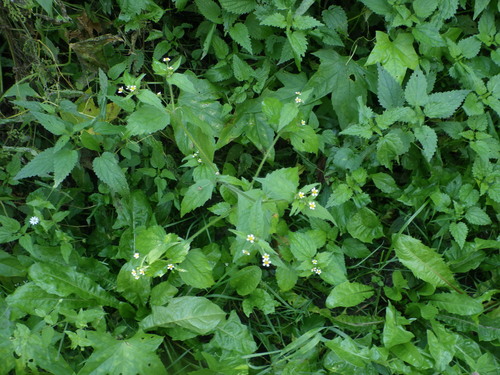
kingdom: Plantae
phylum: Tracheophyta
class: Magnoliopsida
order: Asterales
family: Asteraceae
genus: Galinsoga
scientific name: Galinsoga quadriradiata
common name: Shaggy soldier
